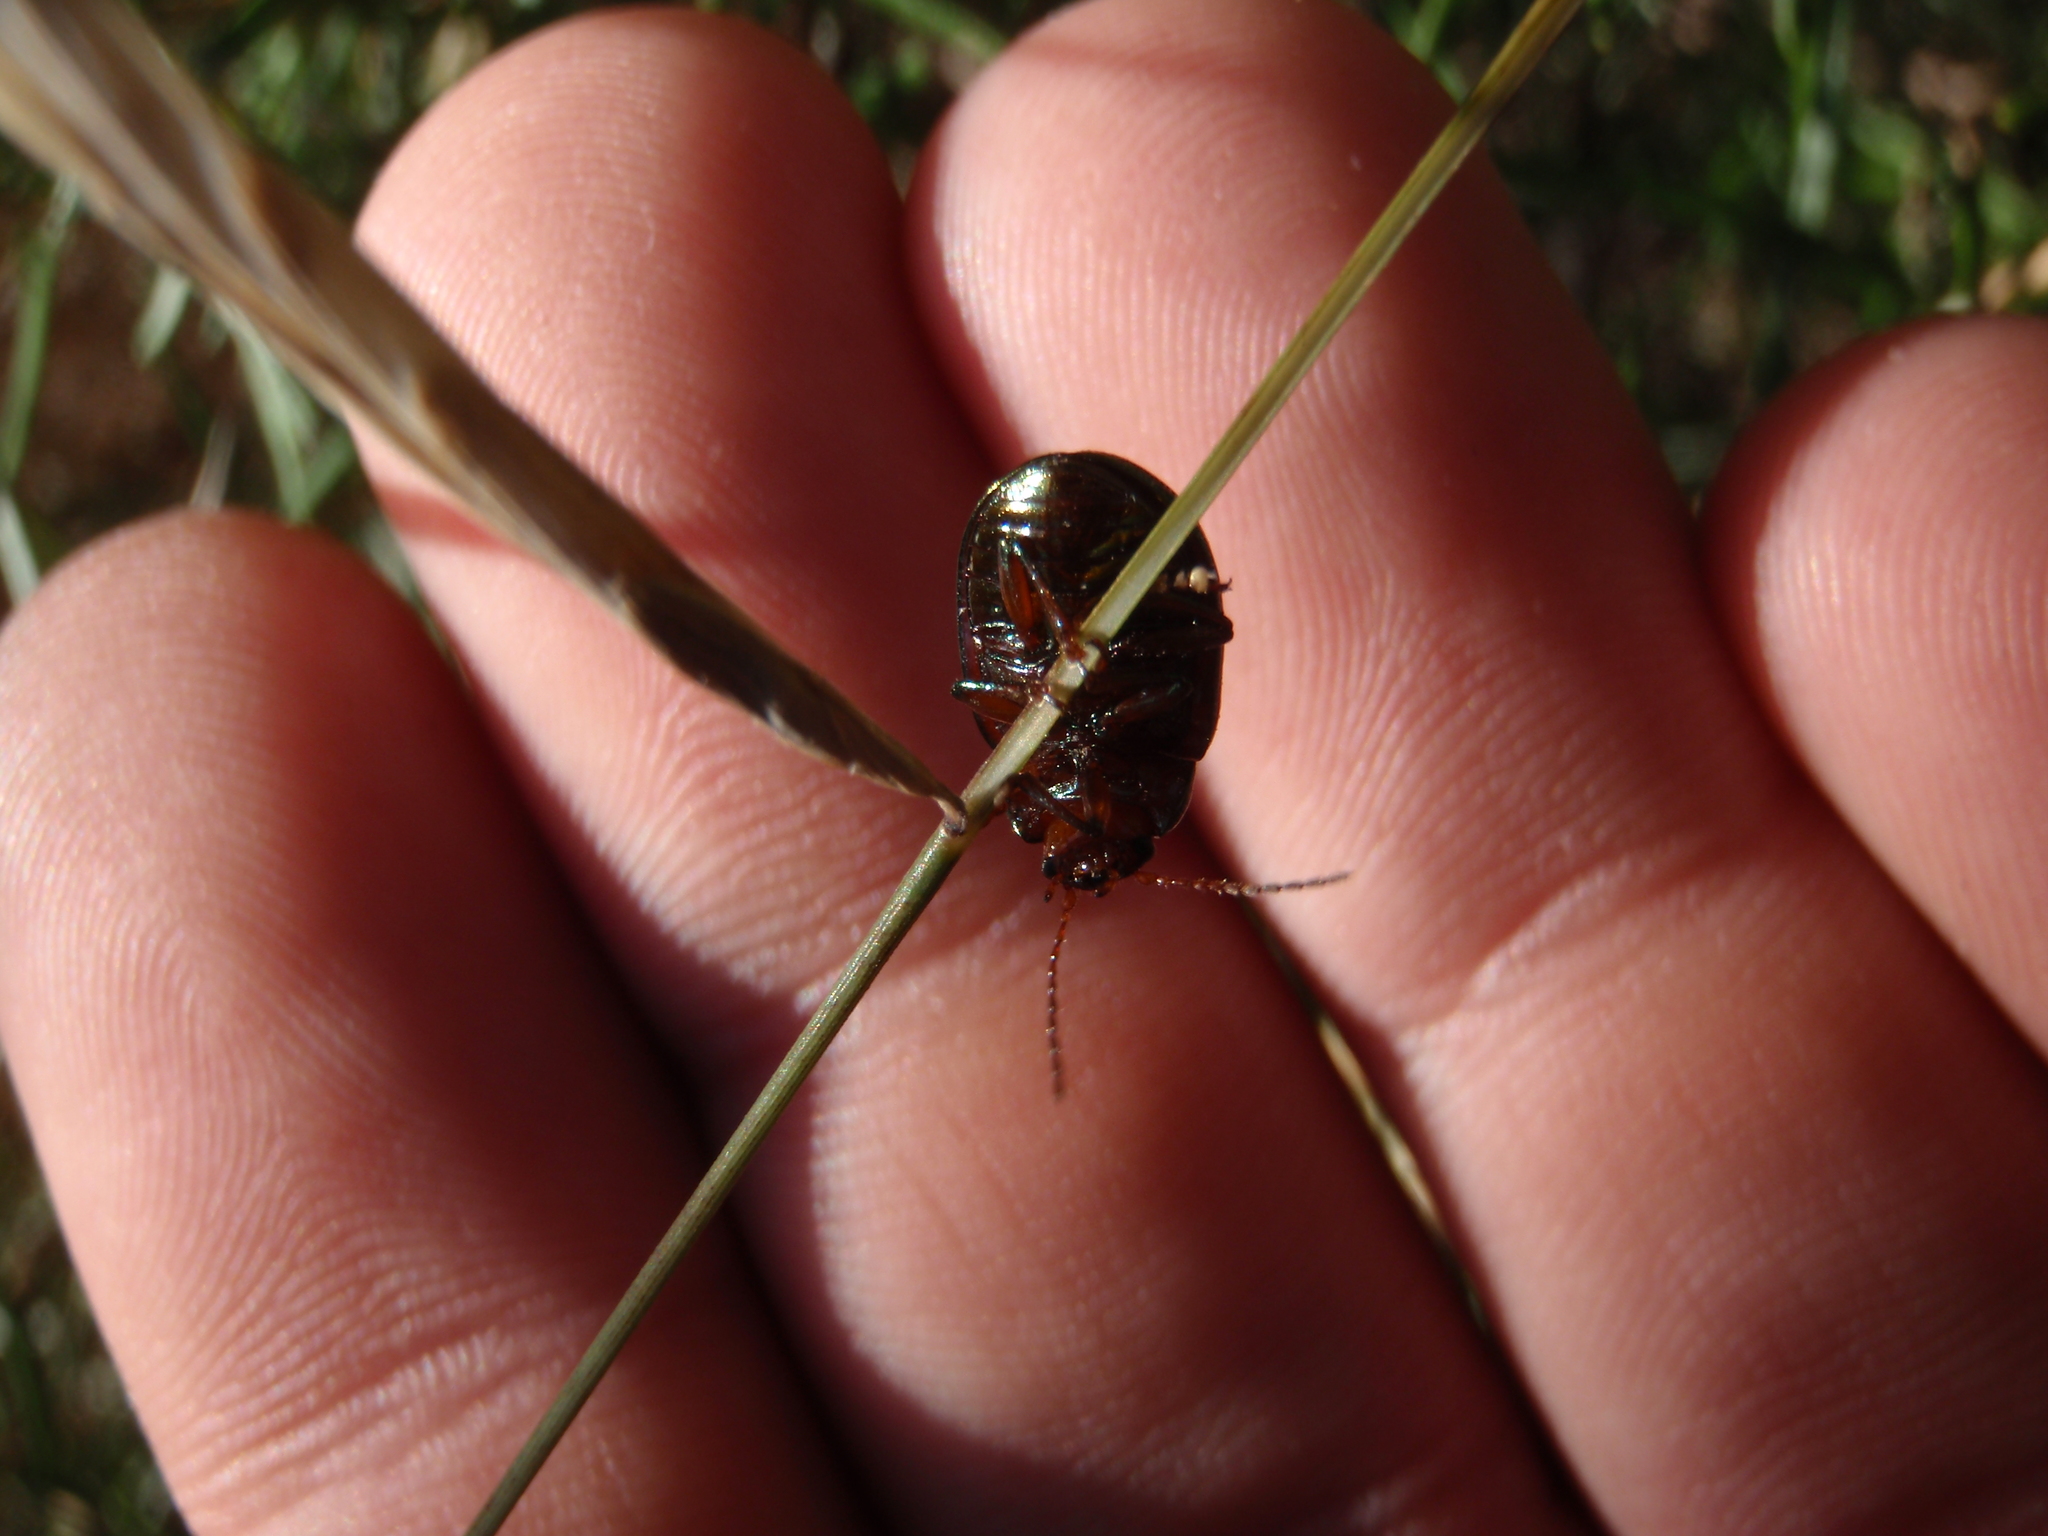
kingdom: Animalia
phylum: Arthropoda
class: Insecta
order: Coleoptera
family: Chrysomelidae
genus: Chrysolina
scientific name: Chrysolina americana
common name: Rosemary beetle
